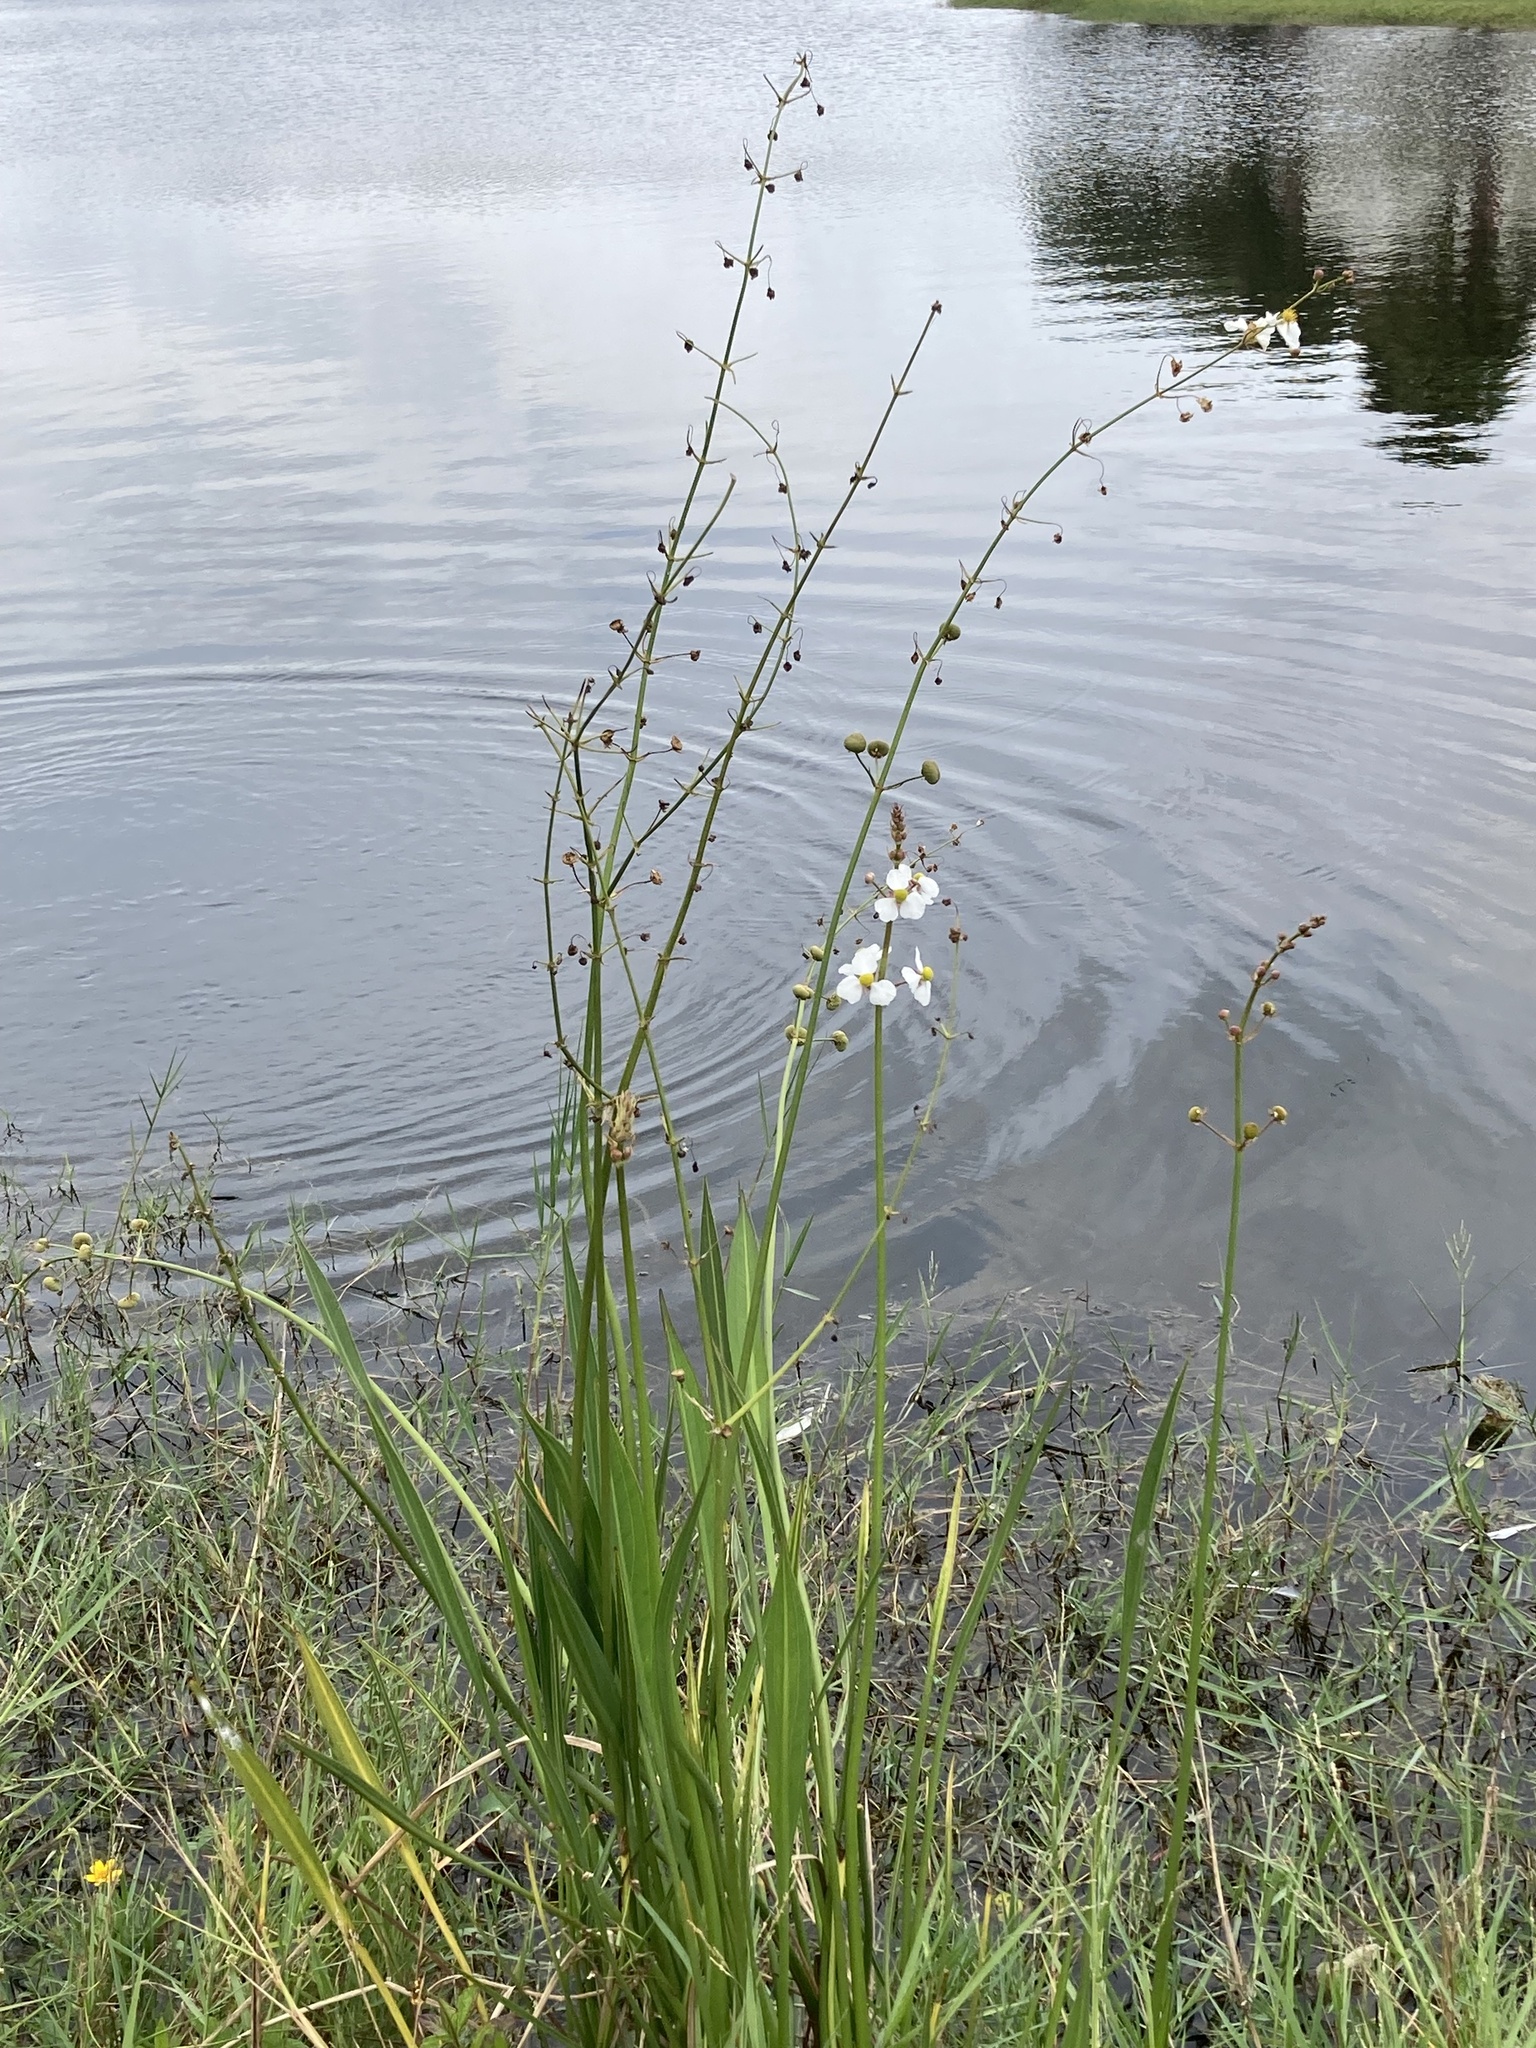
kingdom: Plantae
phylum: Tracheophyta
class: Liliopsida
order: Alismatales
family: Alismataceae
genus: Sagittaria
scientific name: Sagittaria lancifolia
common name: Lance-leaf arrowhead
